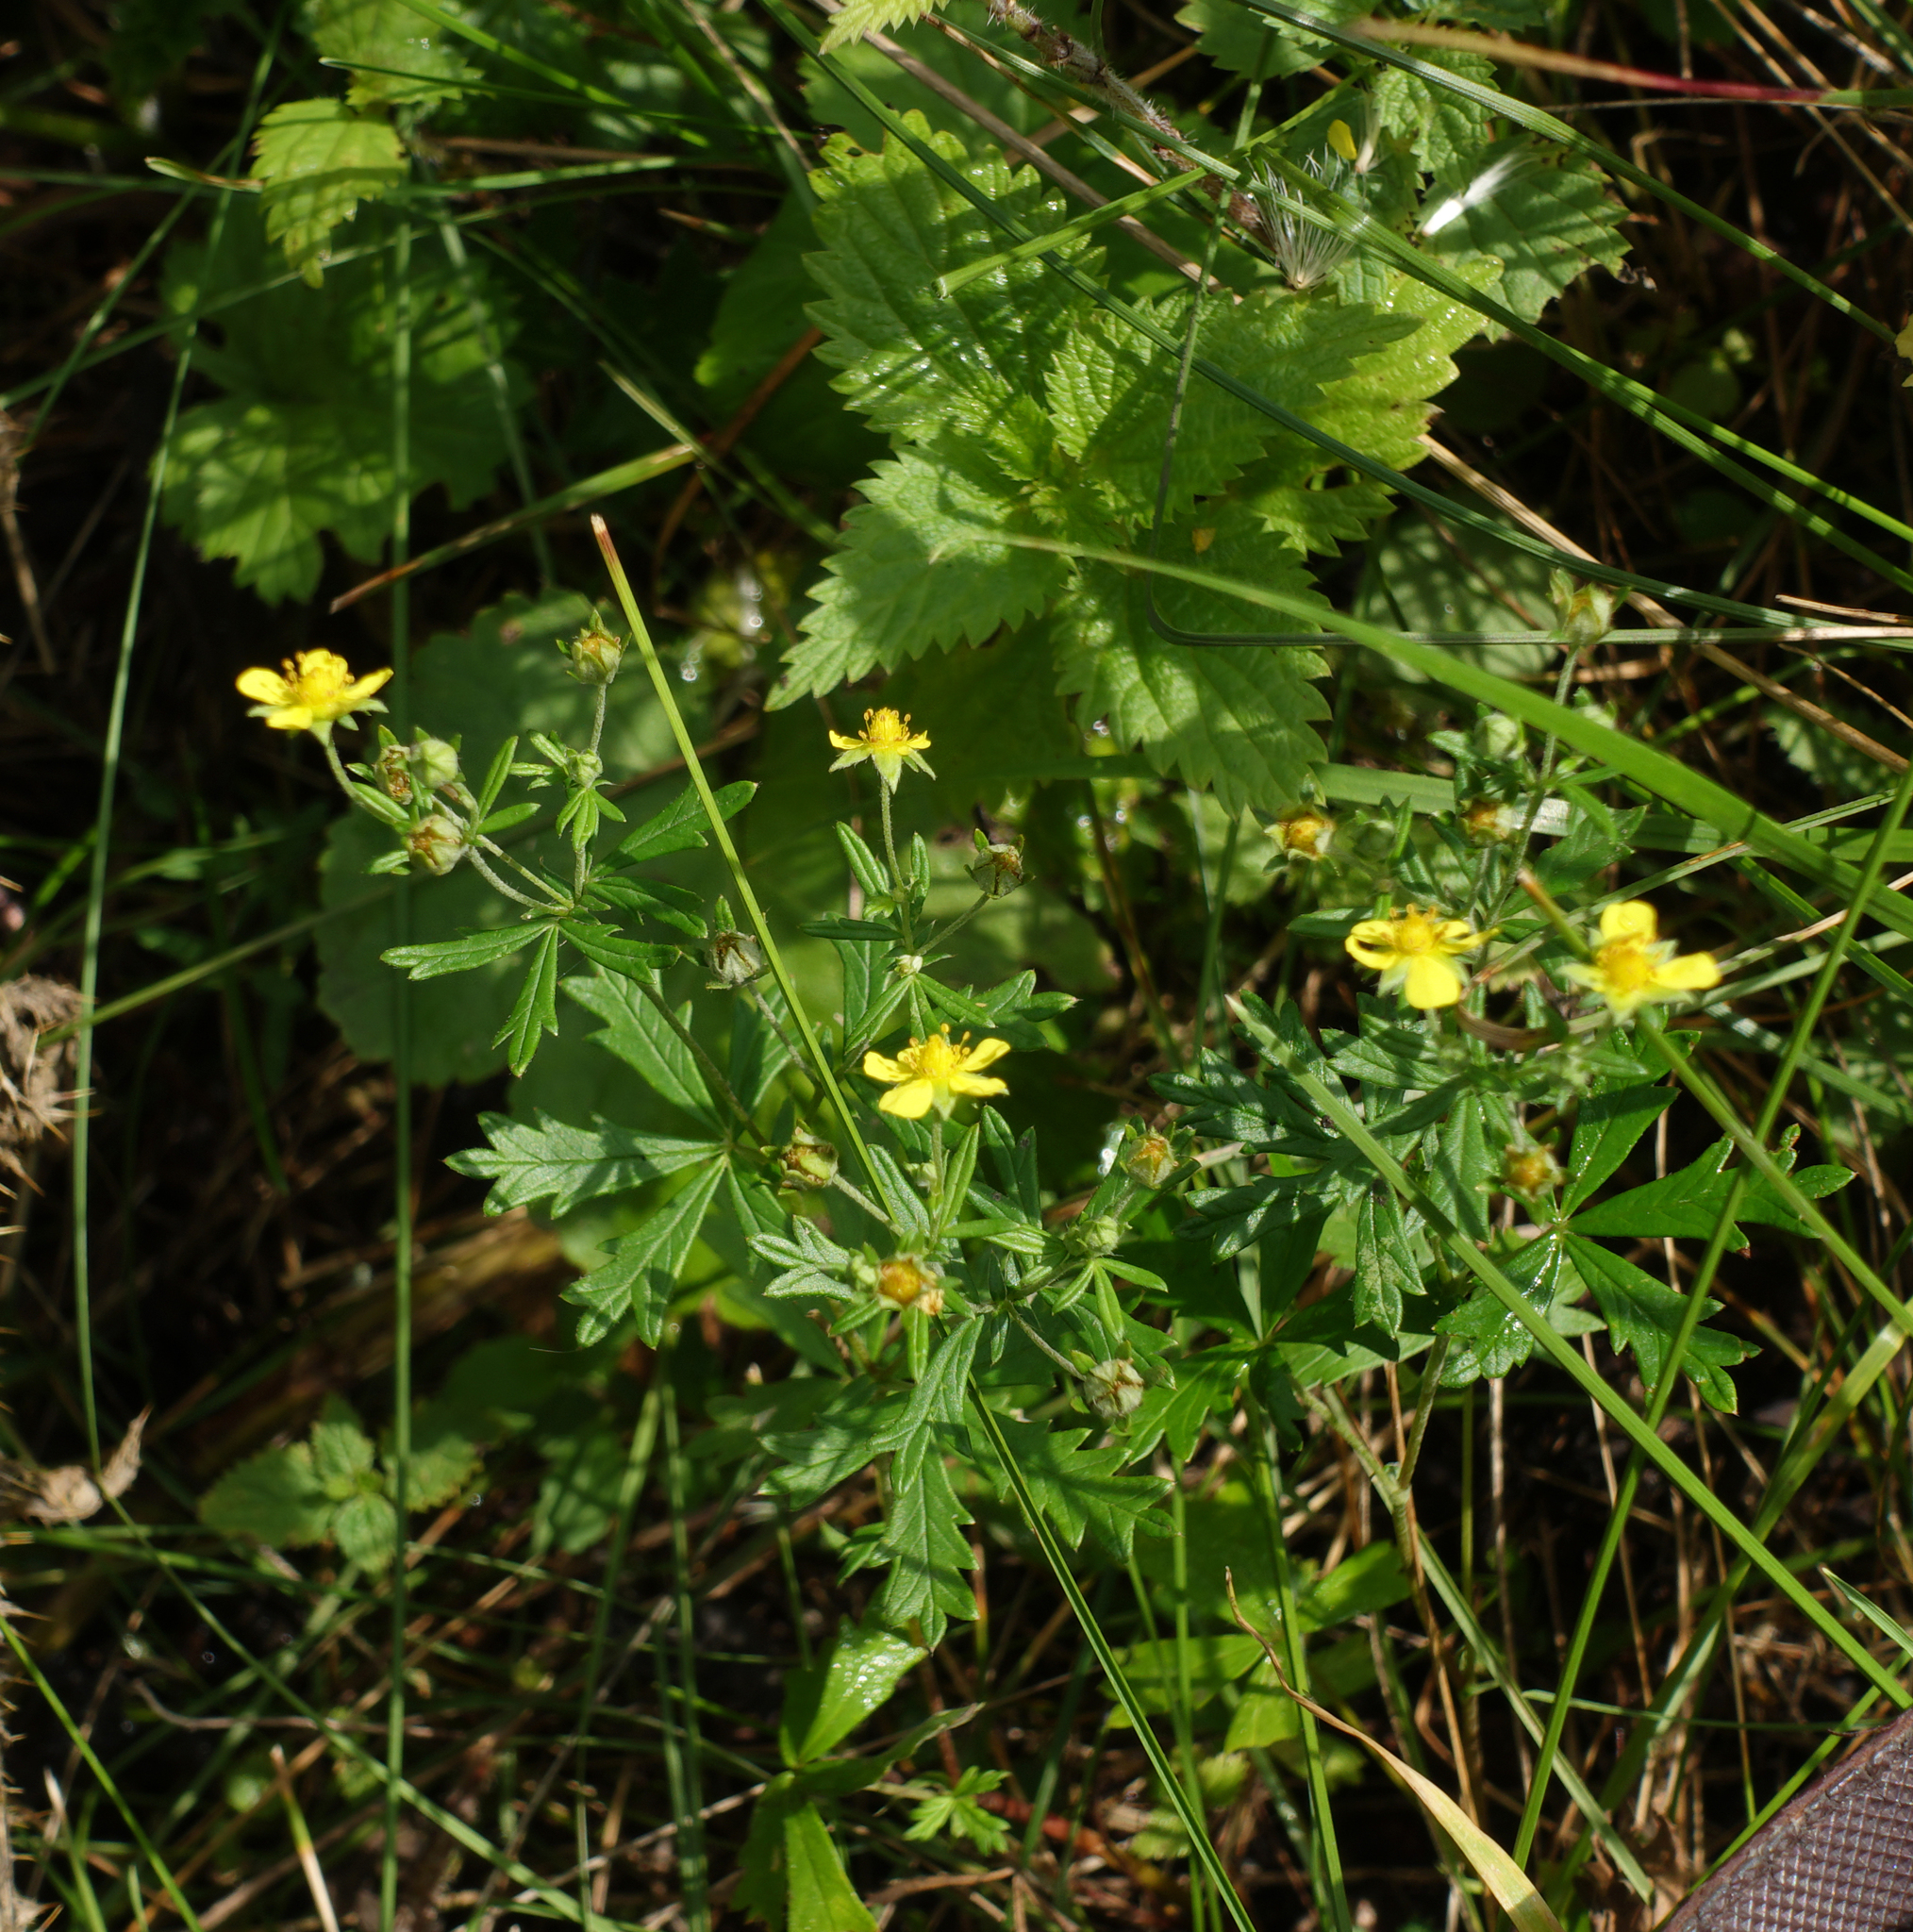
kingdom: Plantae
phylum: Tracheophyta
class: Magnoliopsida
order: Rosales
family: Rosaceae
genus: Potentilla
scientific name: Potentilla argentea
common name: Hoary cinquefoil
